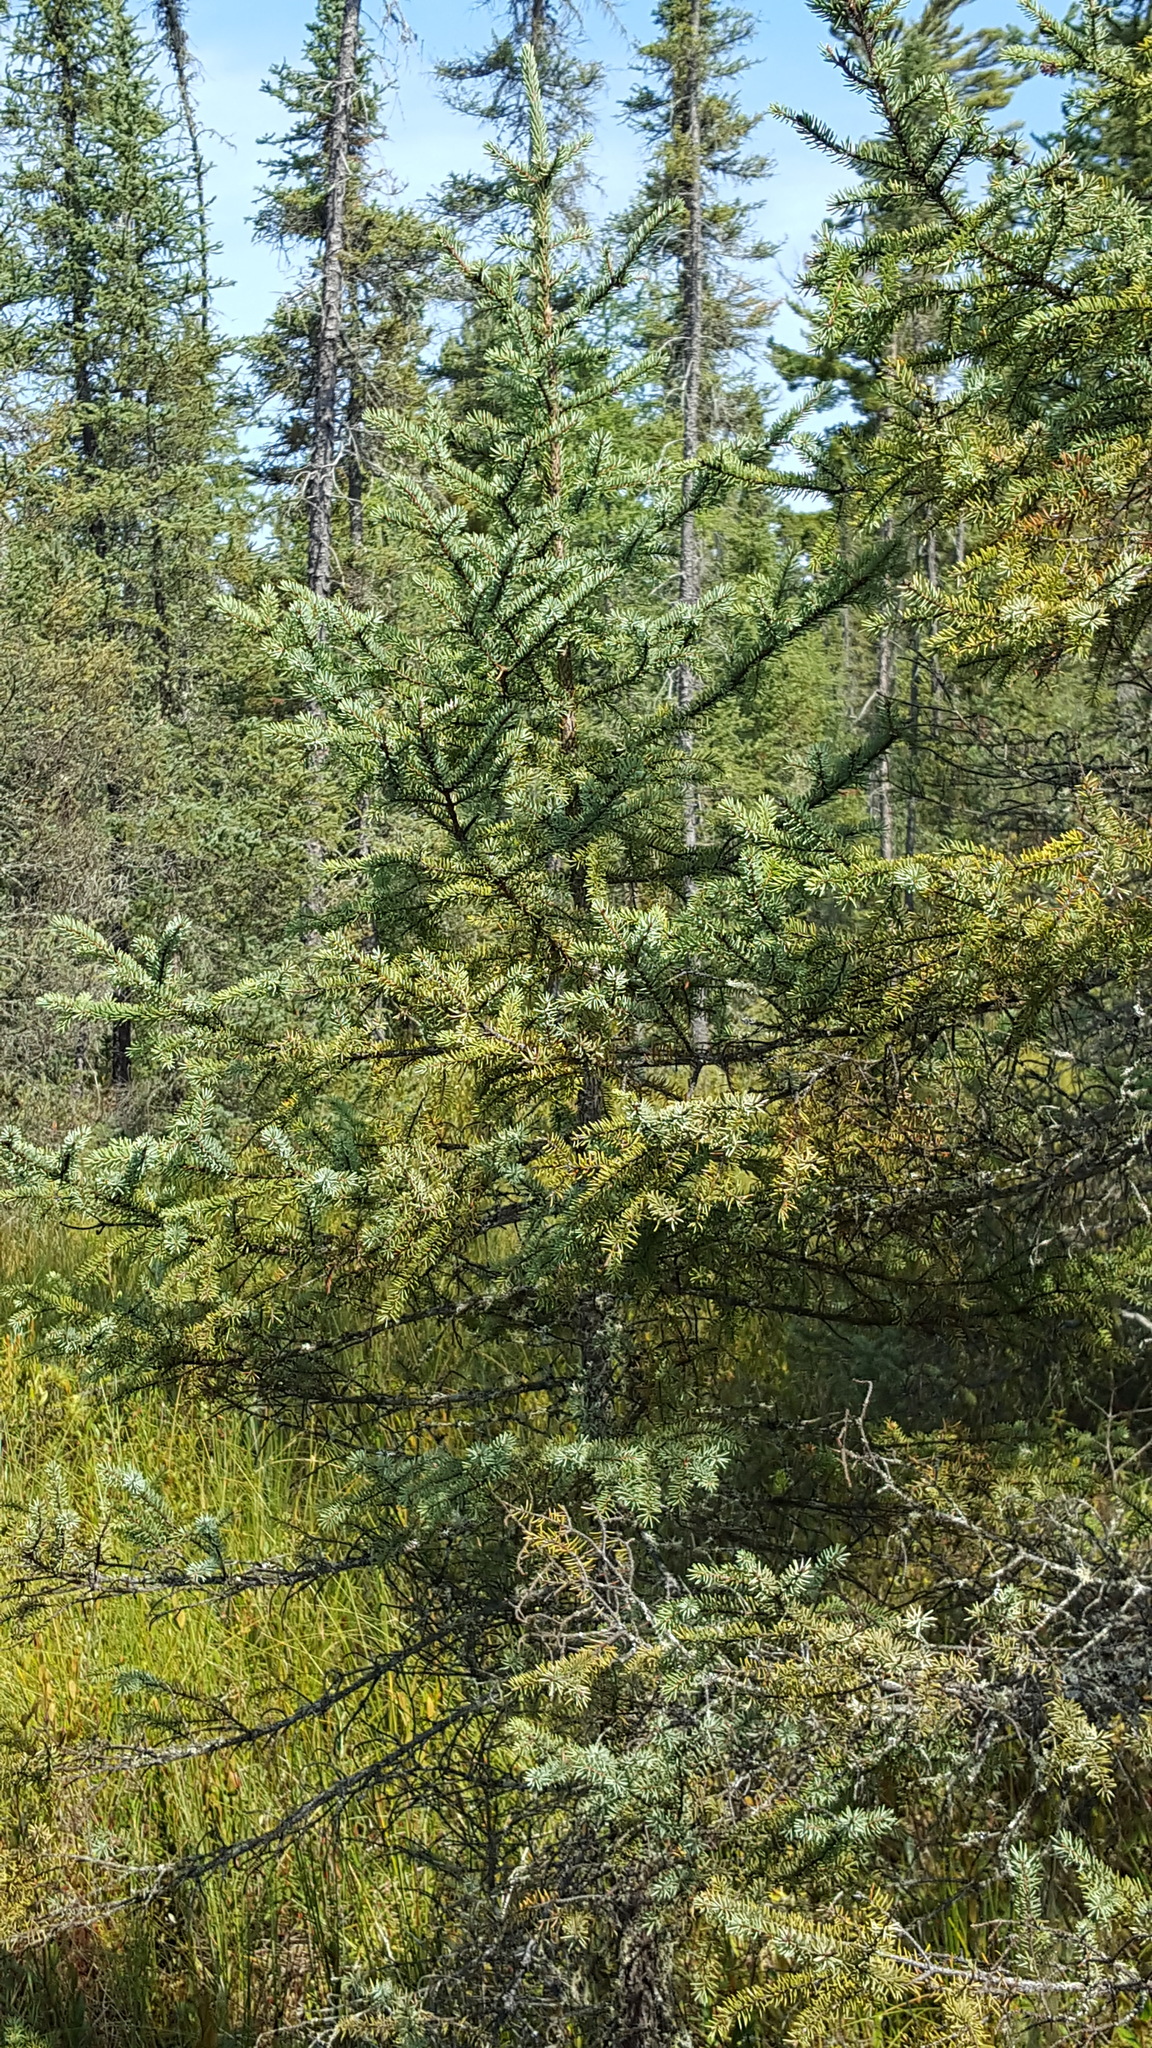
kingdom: Plantae
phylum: Tracheophyta
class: Pinopsida
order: Pinales
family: Pinaceae
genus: Picea
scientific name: Picea mariana
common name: Black spruce
